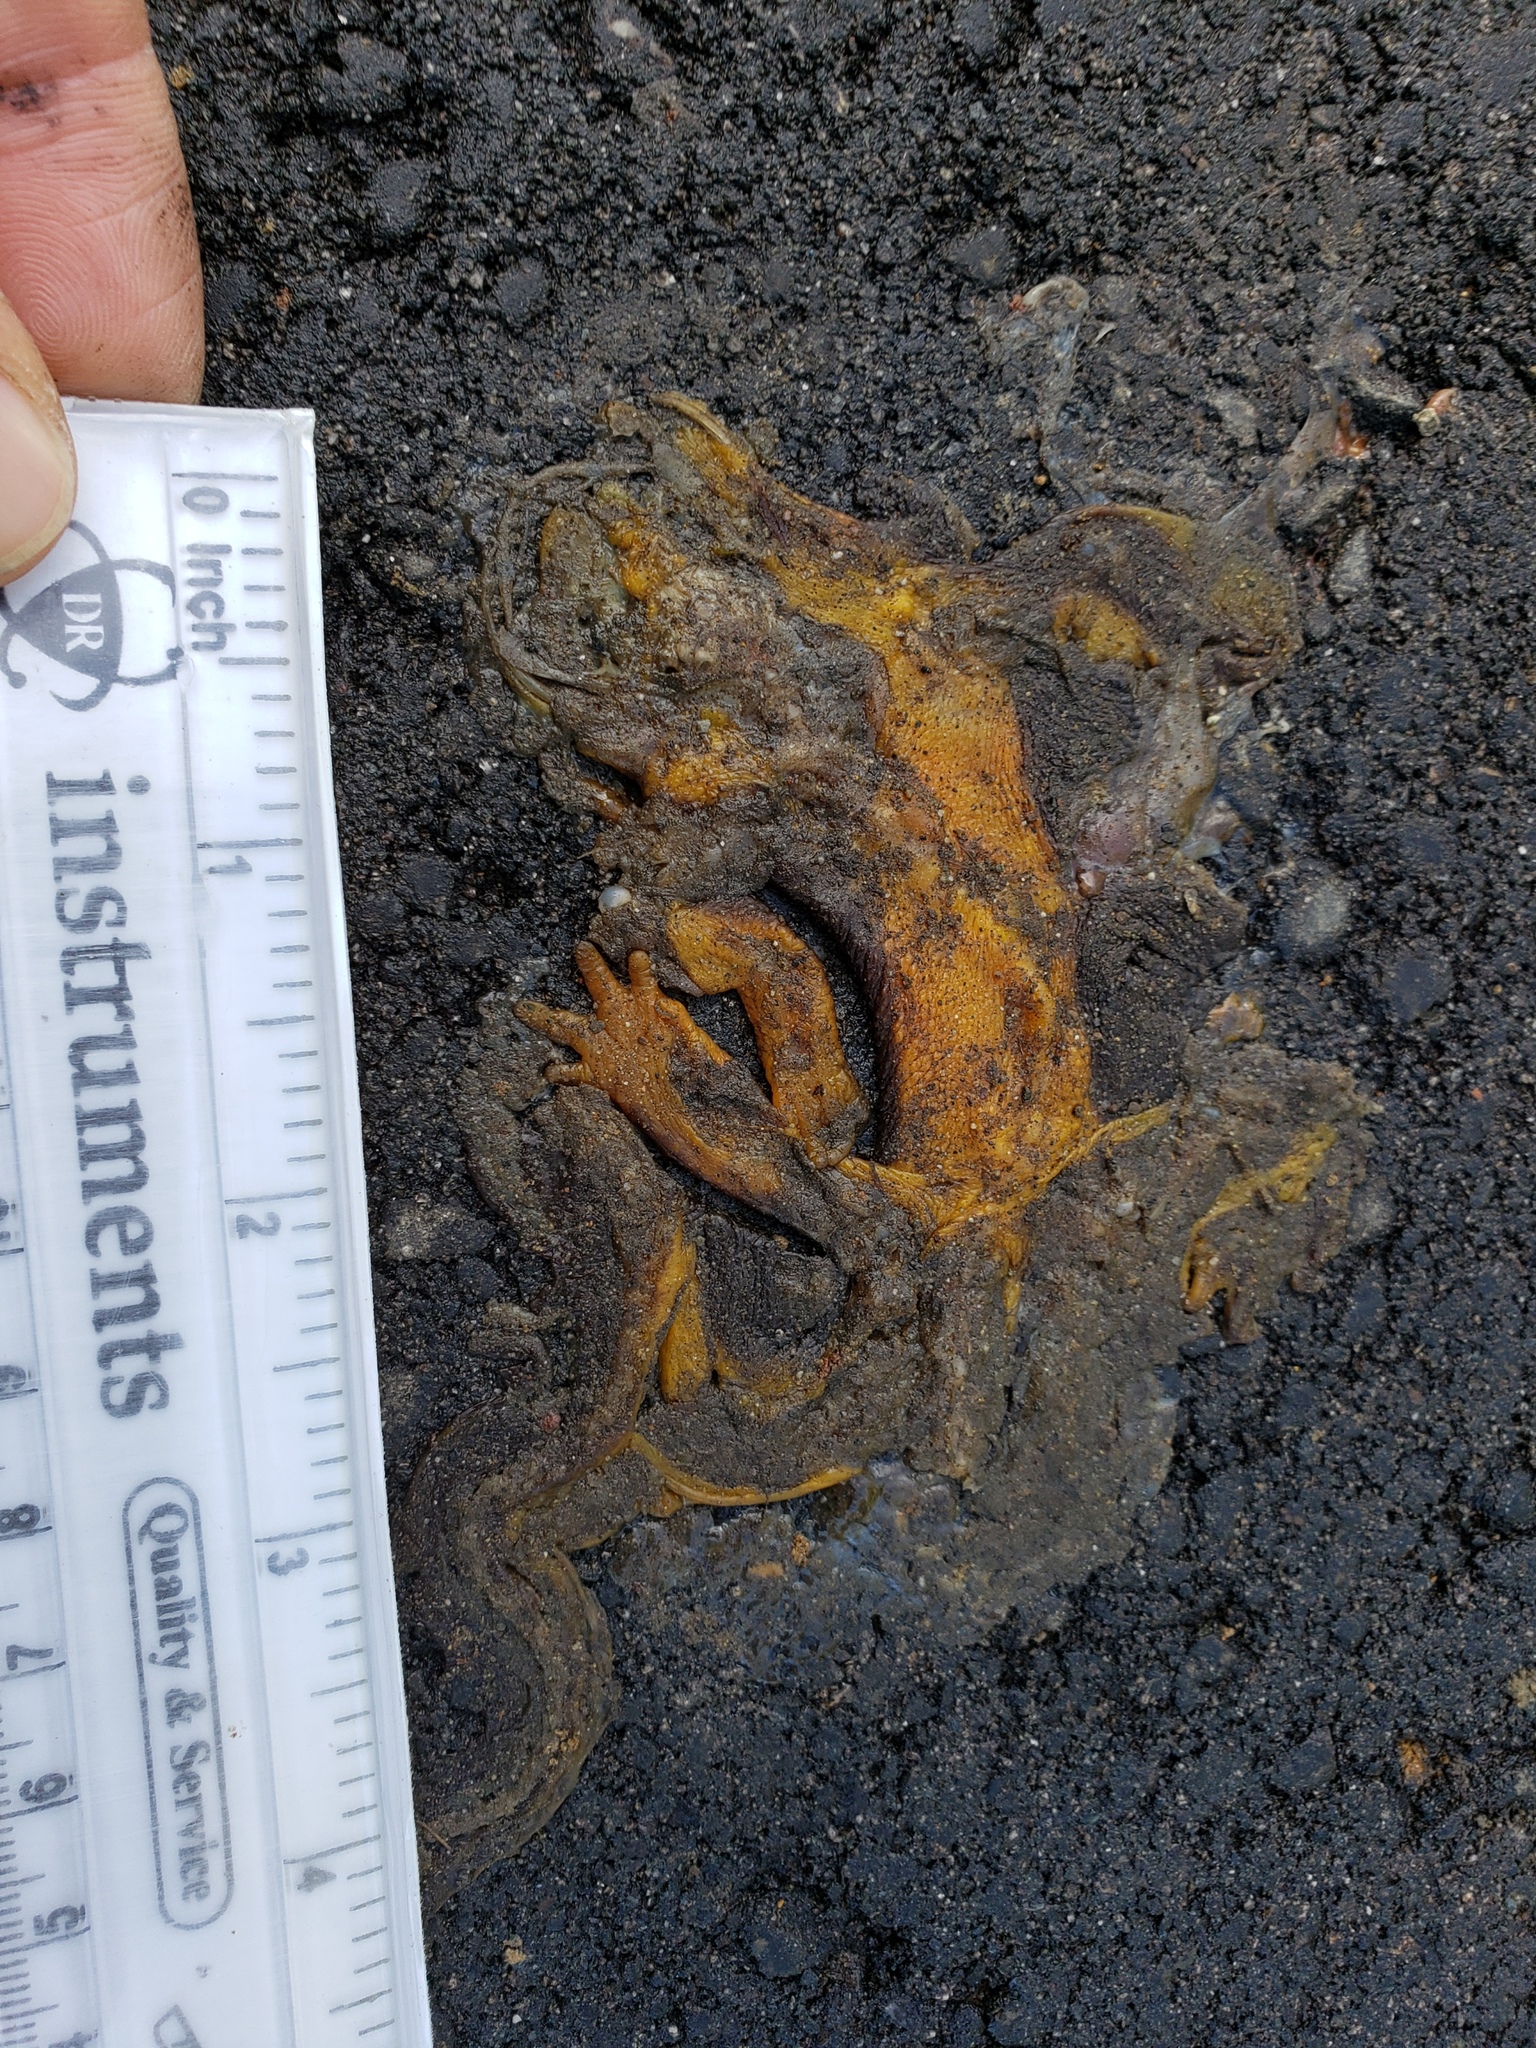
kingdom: Animalia
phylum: Chordata
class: Amphibia
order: Caudata
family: Salamandridae
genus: Taricha
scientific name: Taricha
